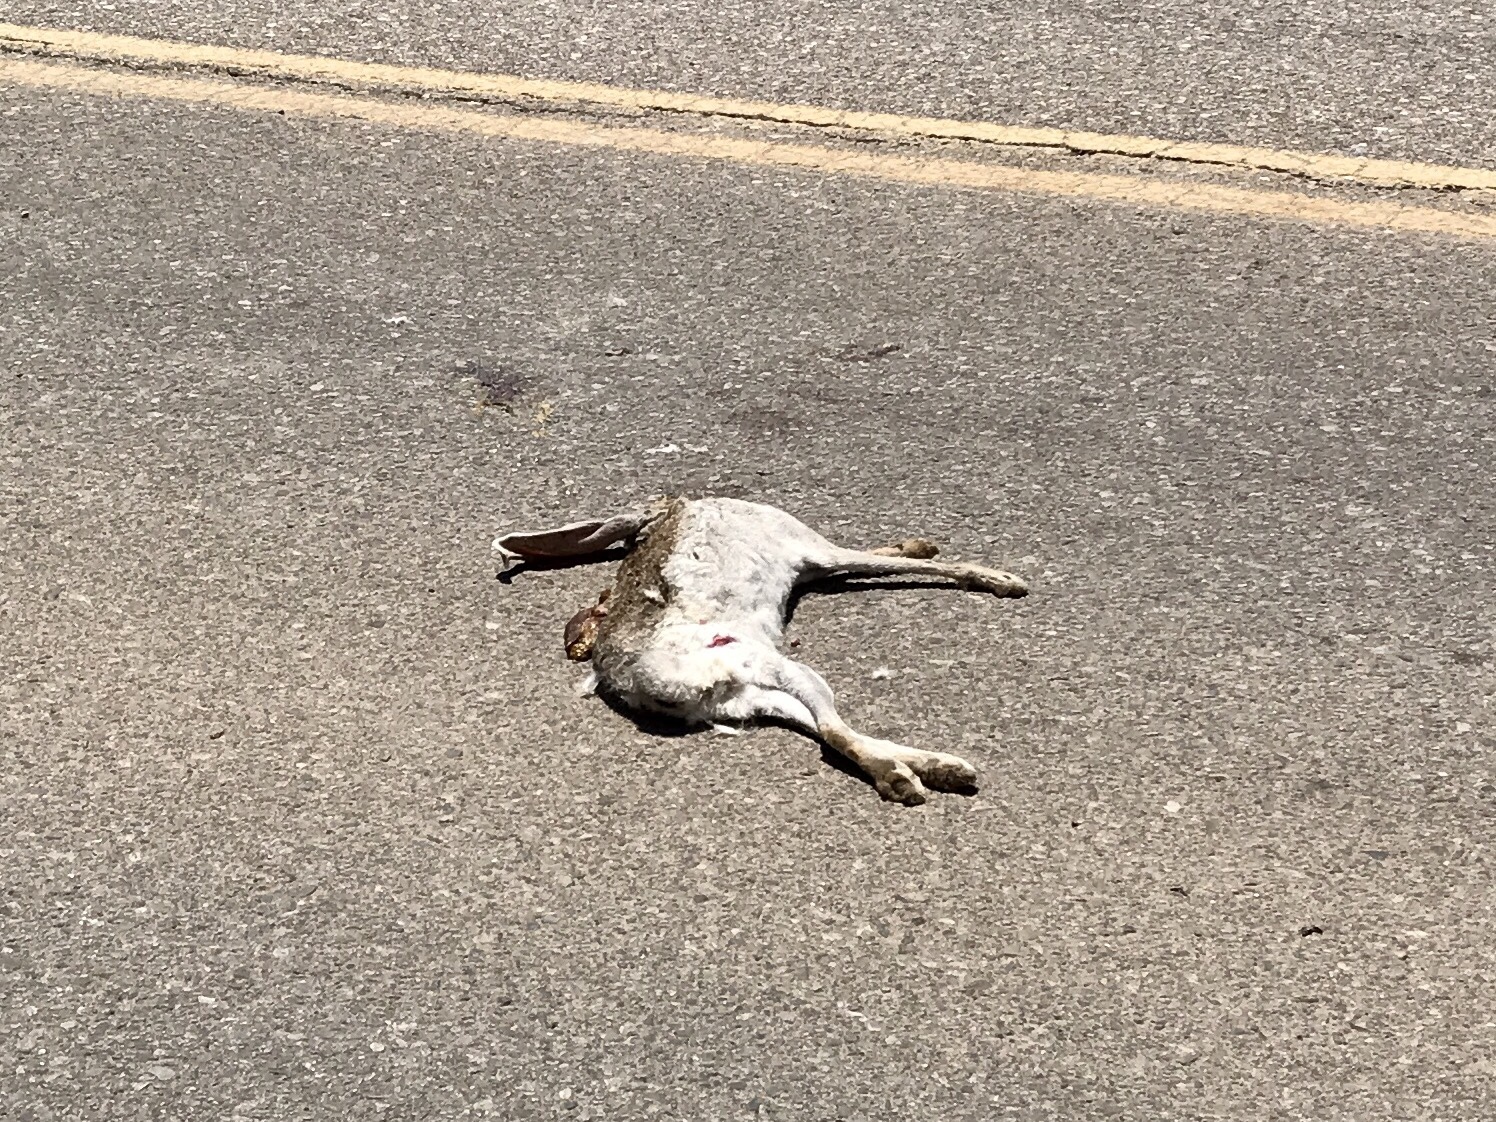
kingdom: Animalia
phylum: Chordata
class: Mammalia
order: Lagomorpha
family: Leporidae
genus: Lepus
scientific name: Lepus californicus
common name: Black-tailed jackrabbit
